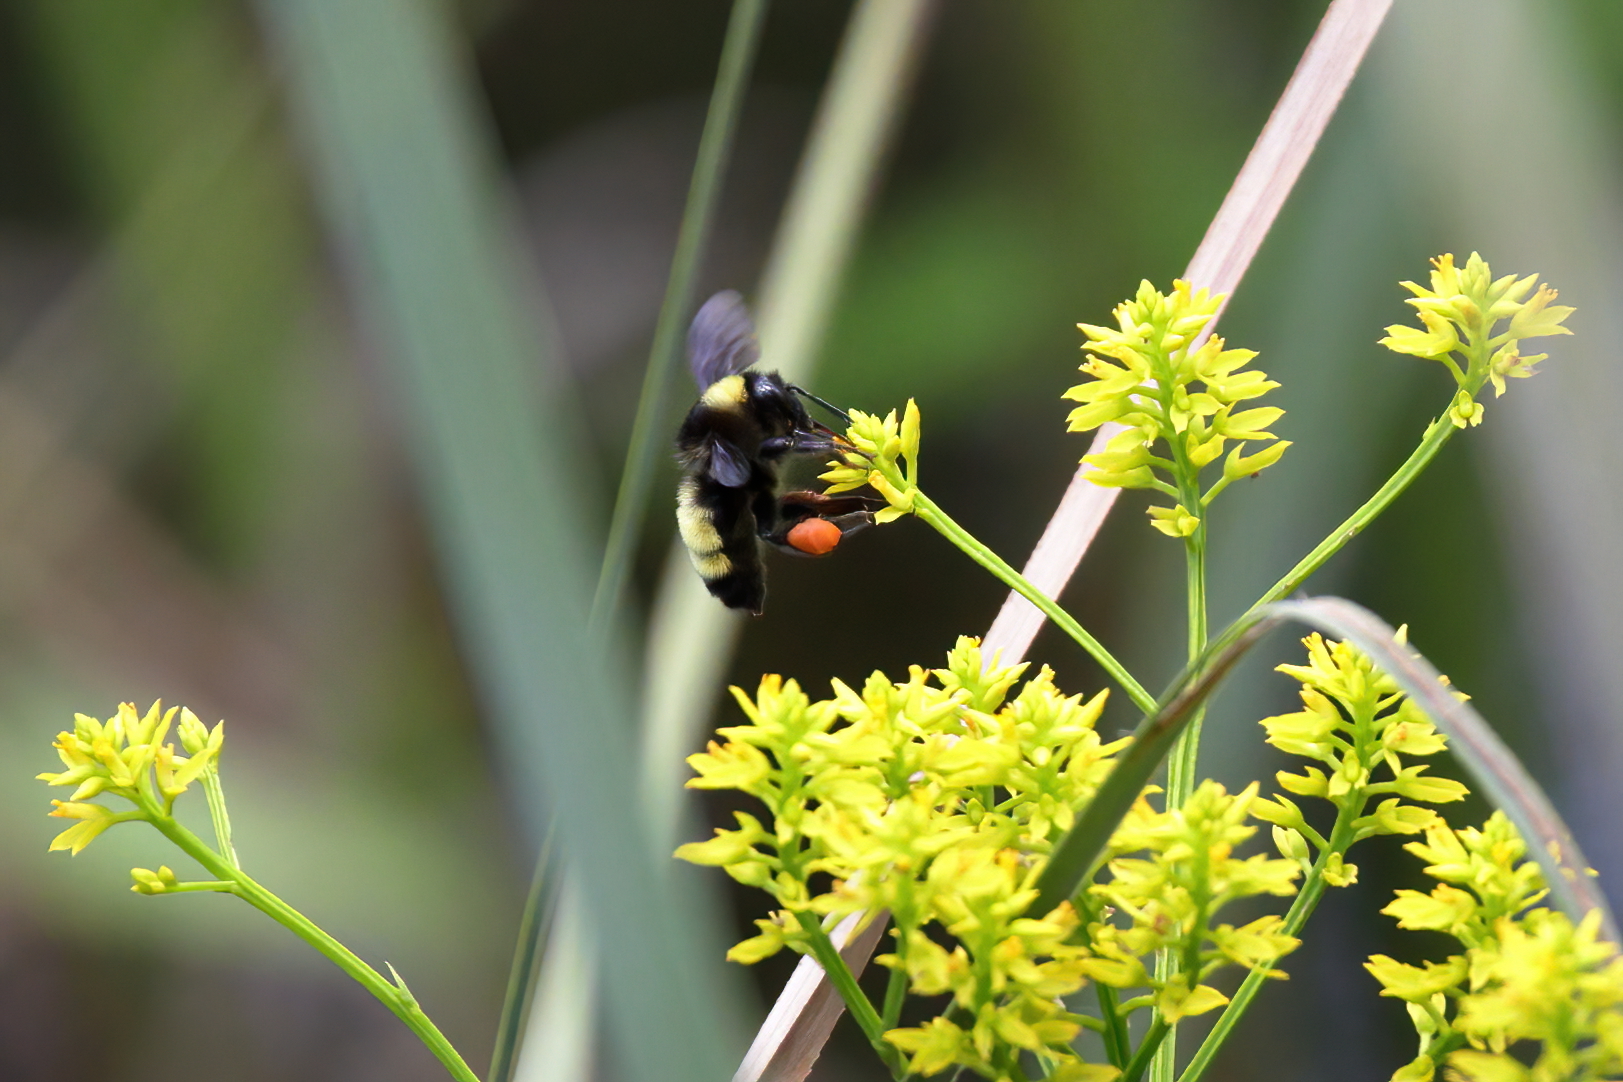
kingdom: Animalia
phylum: Arthropoda
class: Insecta
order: Hymenoptera
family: Apidae
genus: Bombus
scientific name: Bombus pensylvanicus
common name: Bumble bee
